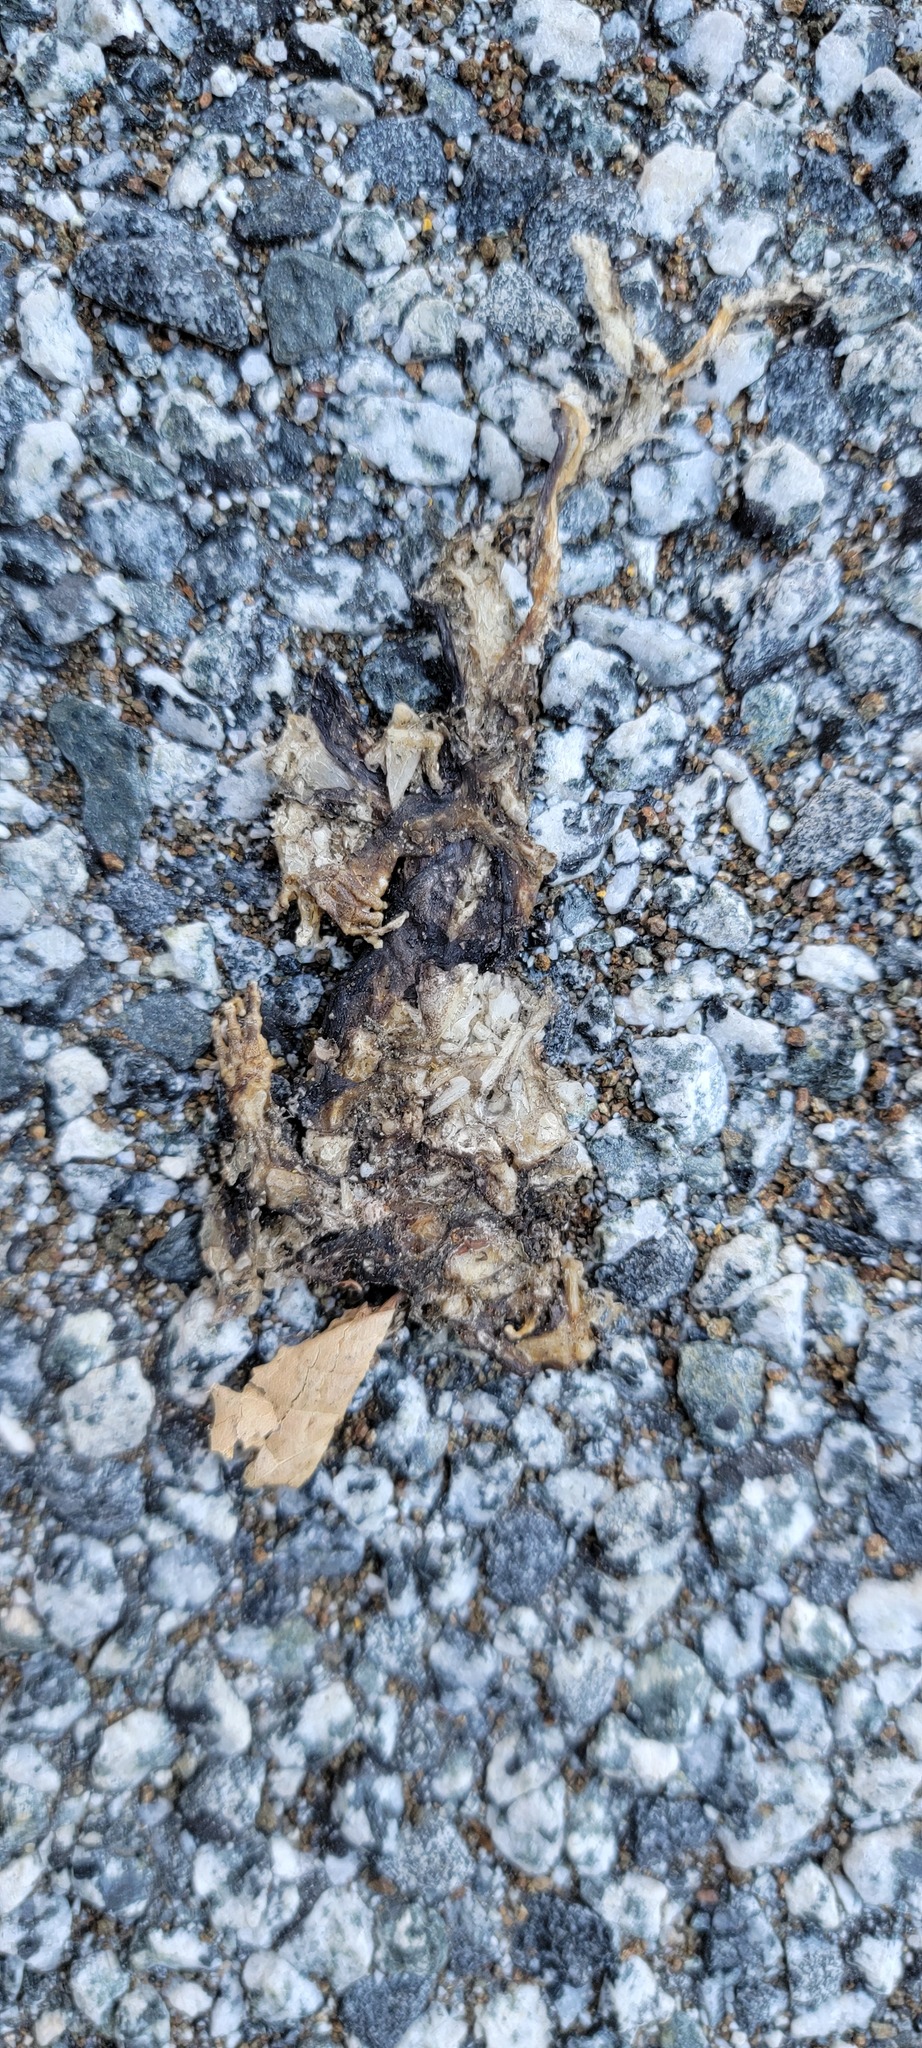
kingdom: Animalia
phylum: Chordata
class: Amphibia
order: Caudata
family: Salamandridae
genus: Taricha
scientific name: Taricha
